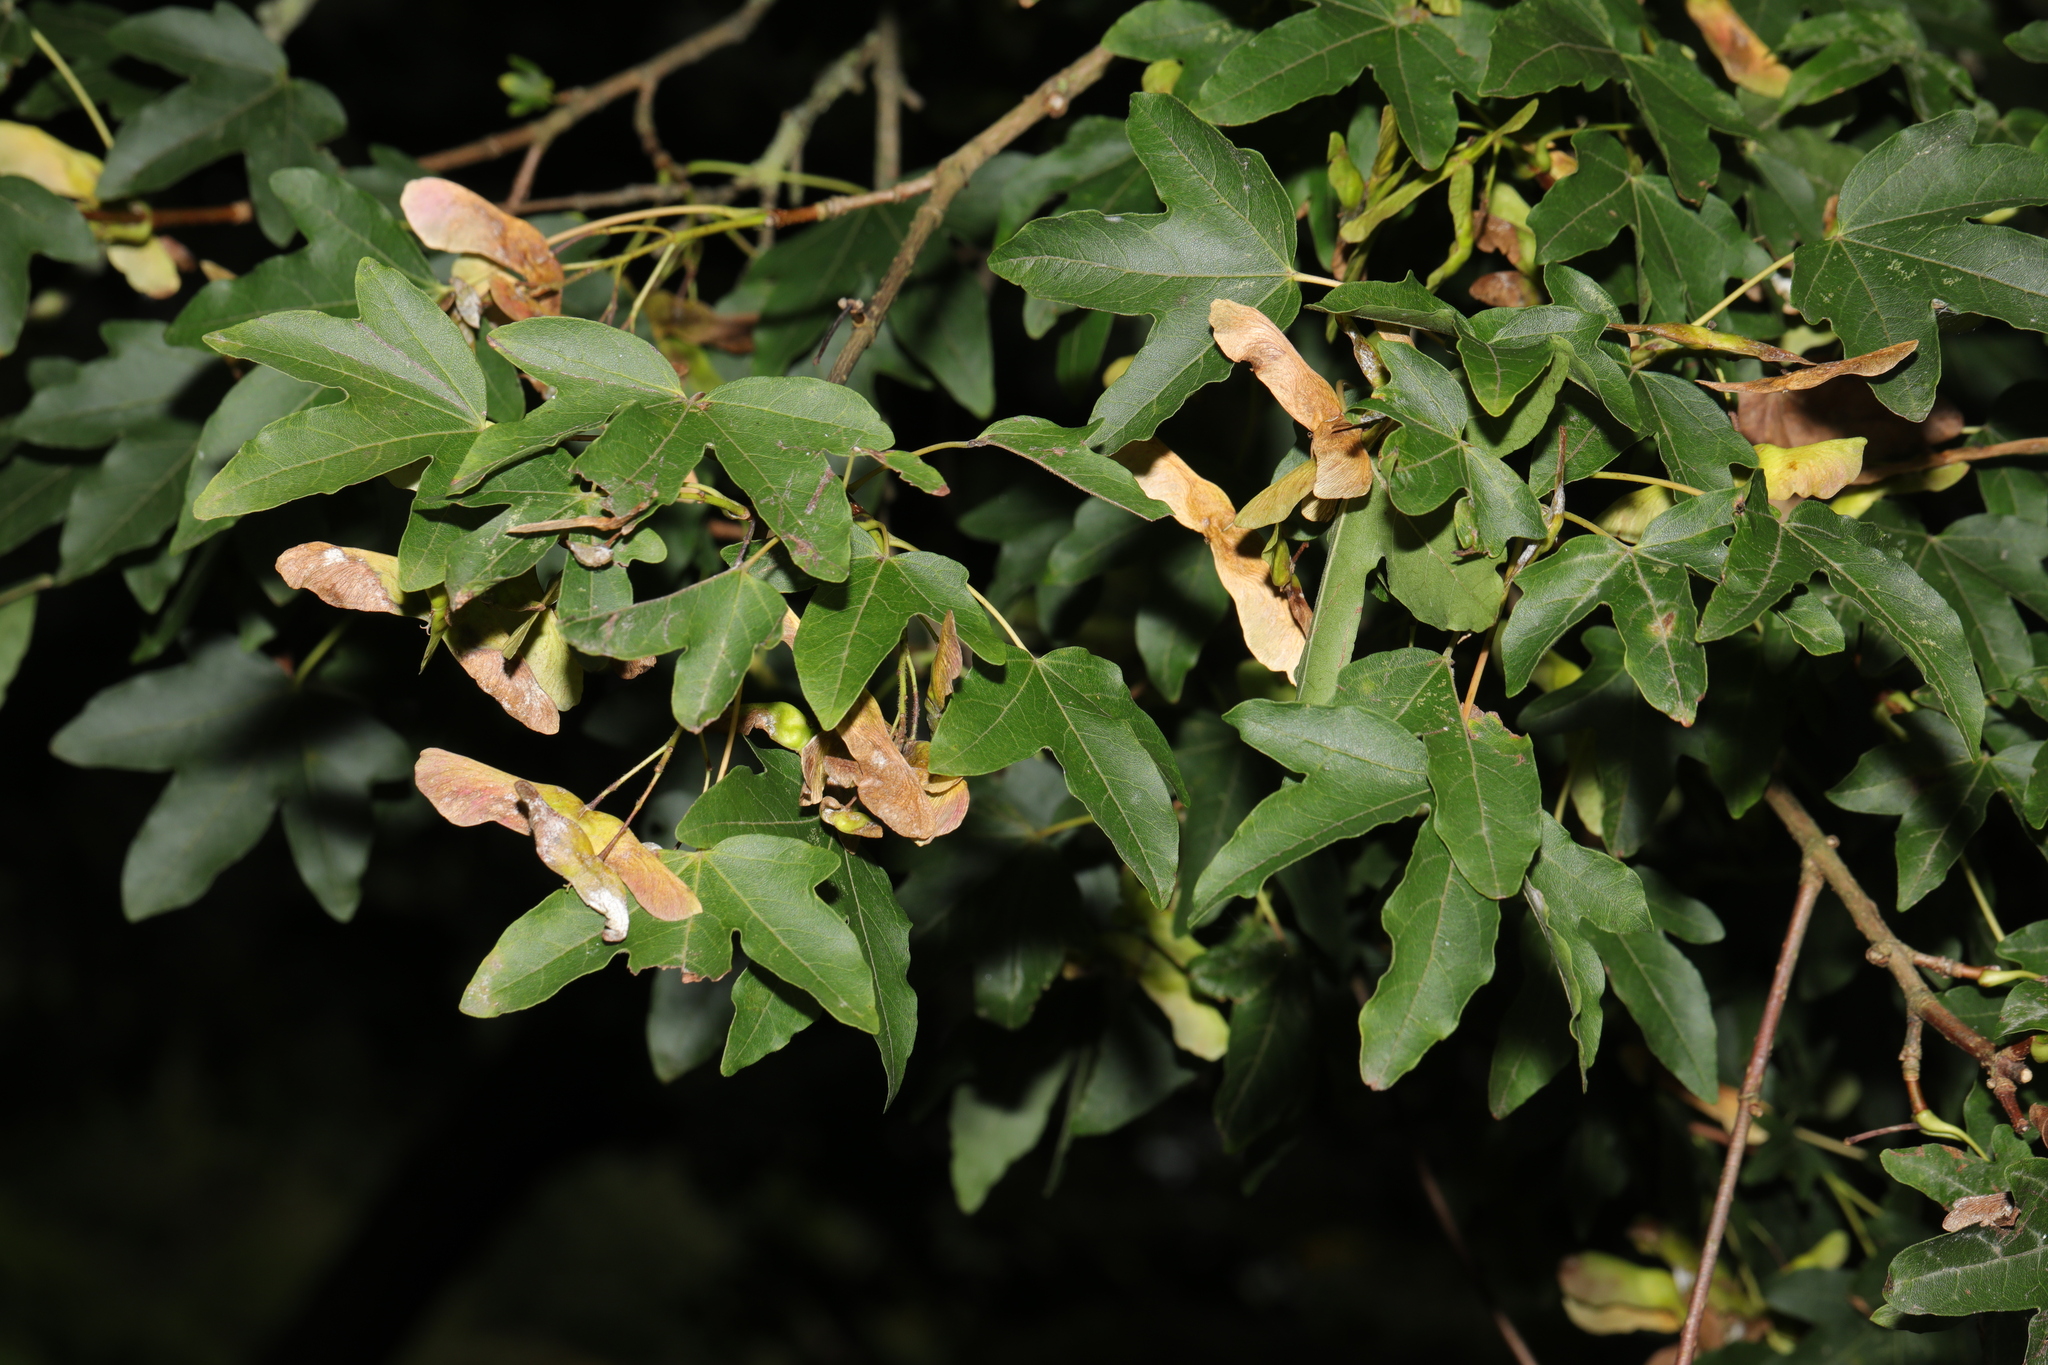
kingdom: Plantae
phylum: Tracheophyta
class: Magnoliopsida
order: Sapindales
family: Sapindaceae
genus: Acer
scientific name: Acer campestre
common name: Field maple
